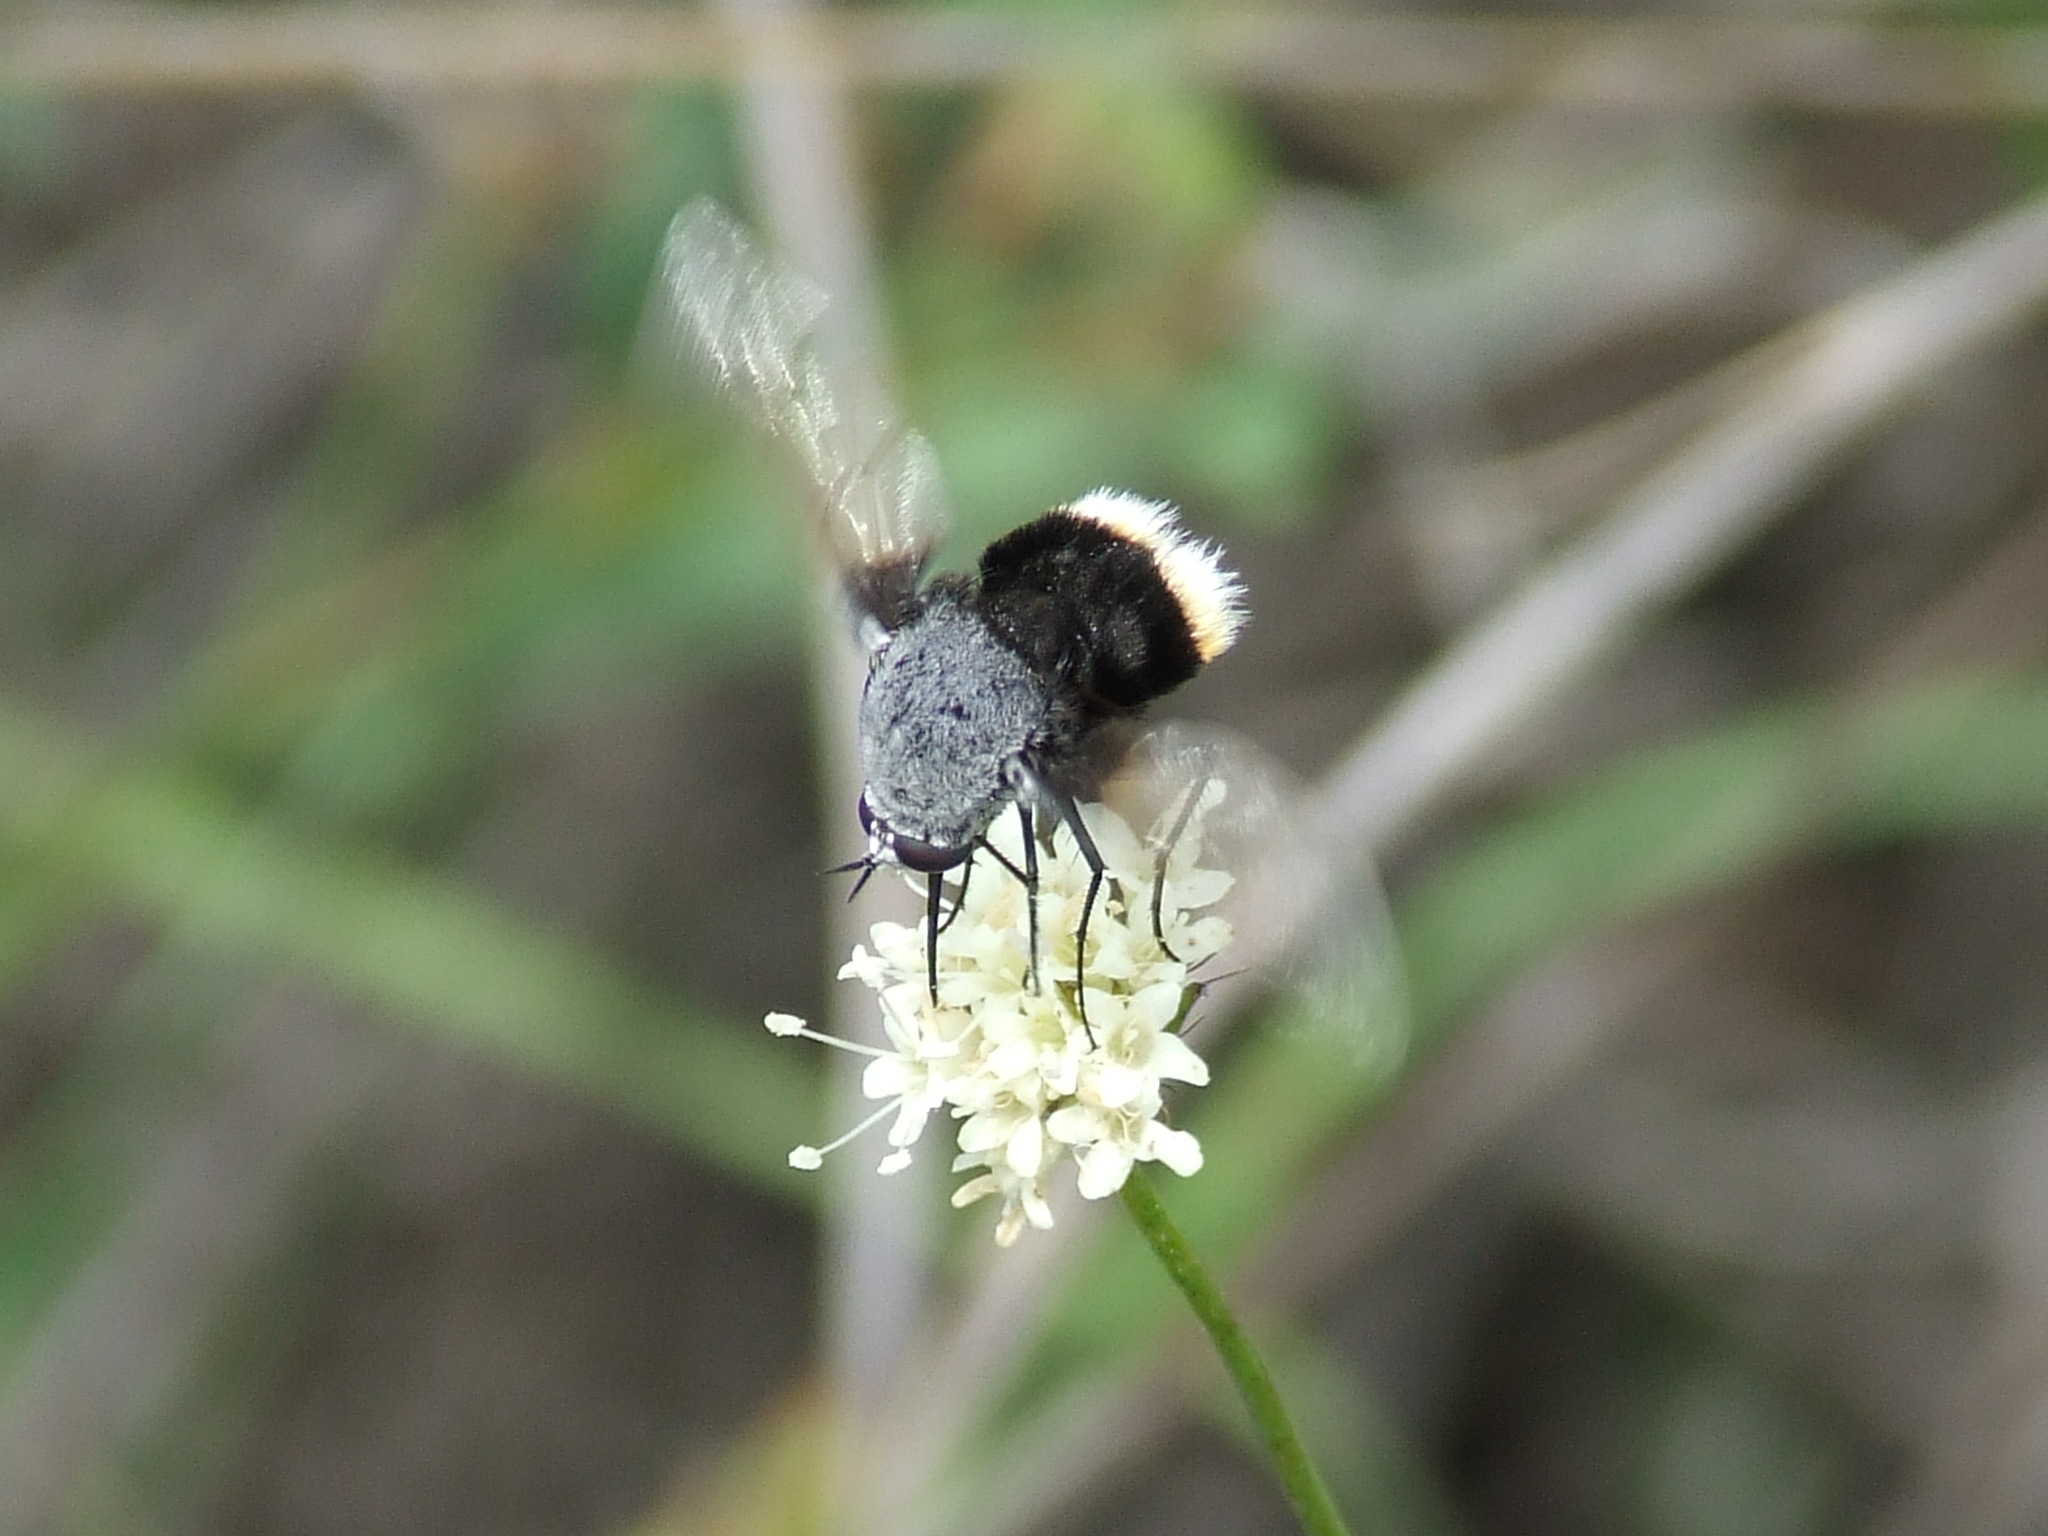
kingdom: Animalia
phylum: Arthropoda
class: Insecta
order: Diptera
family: Bombyliidae
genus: Bombomyia
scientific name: Bombomyia discoidea
